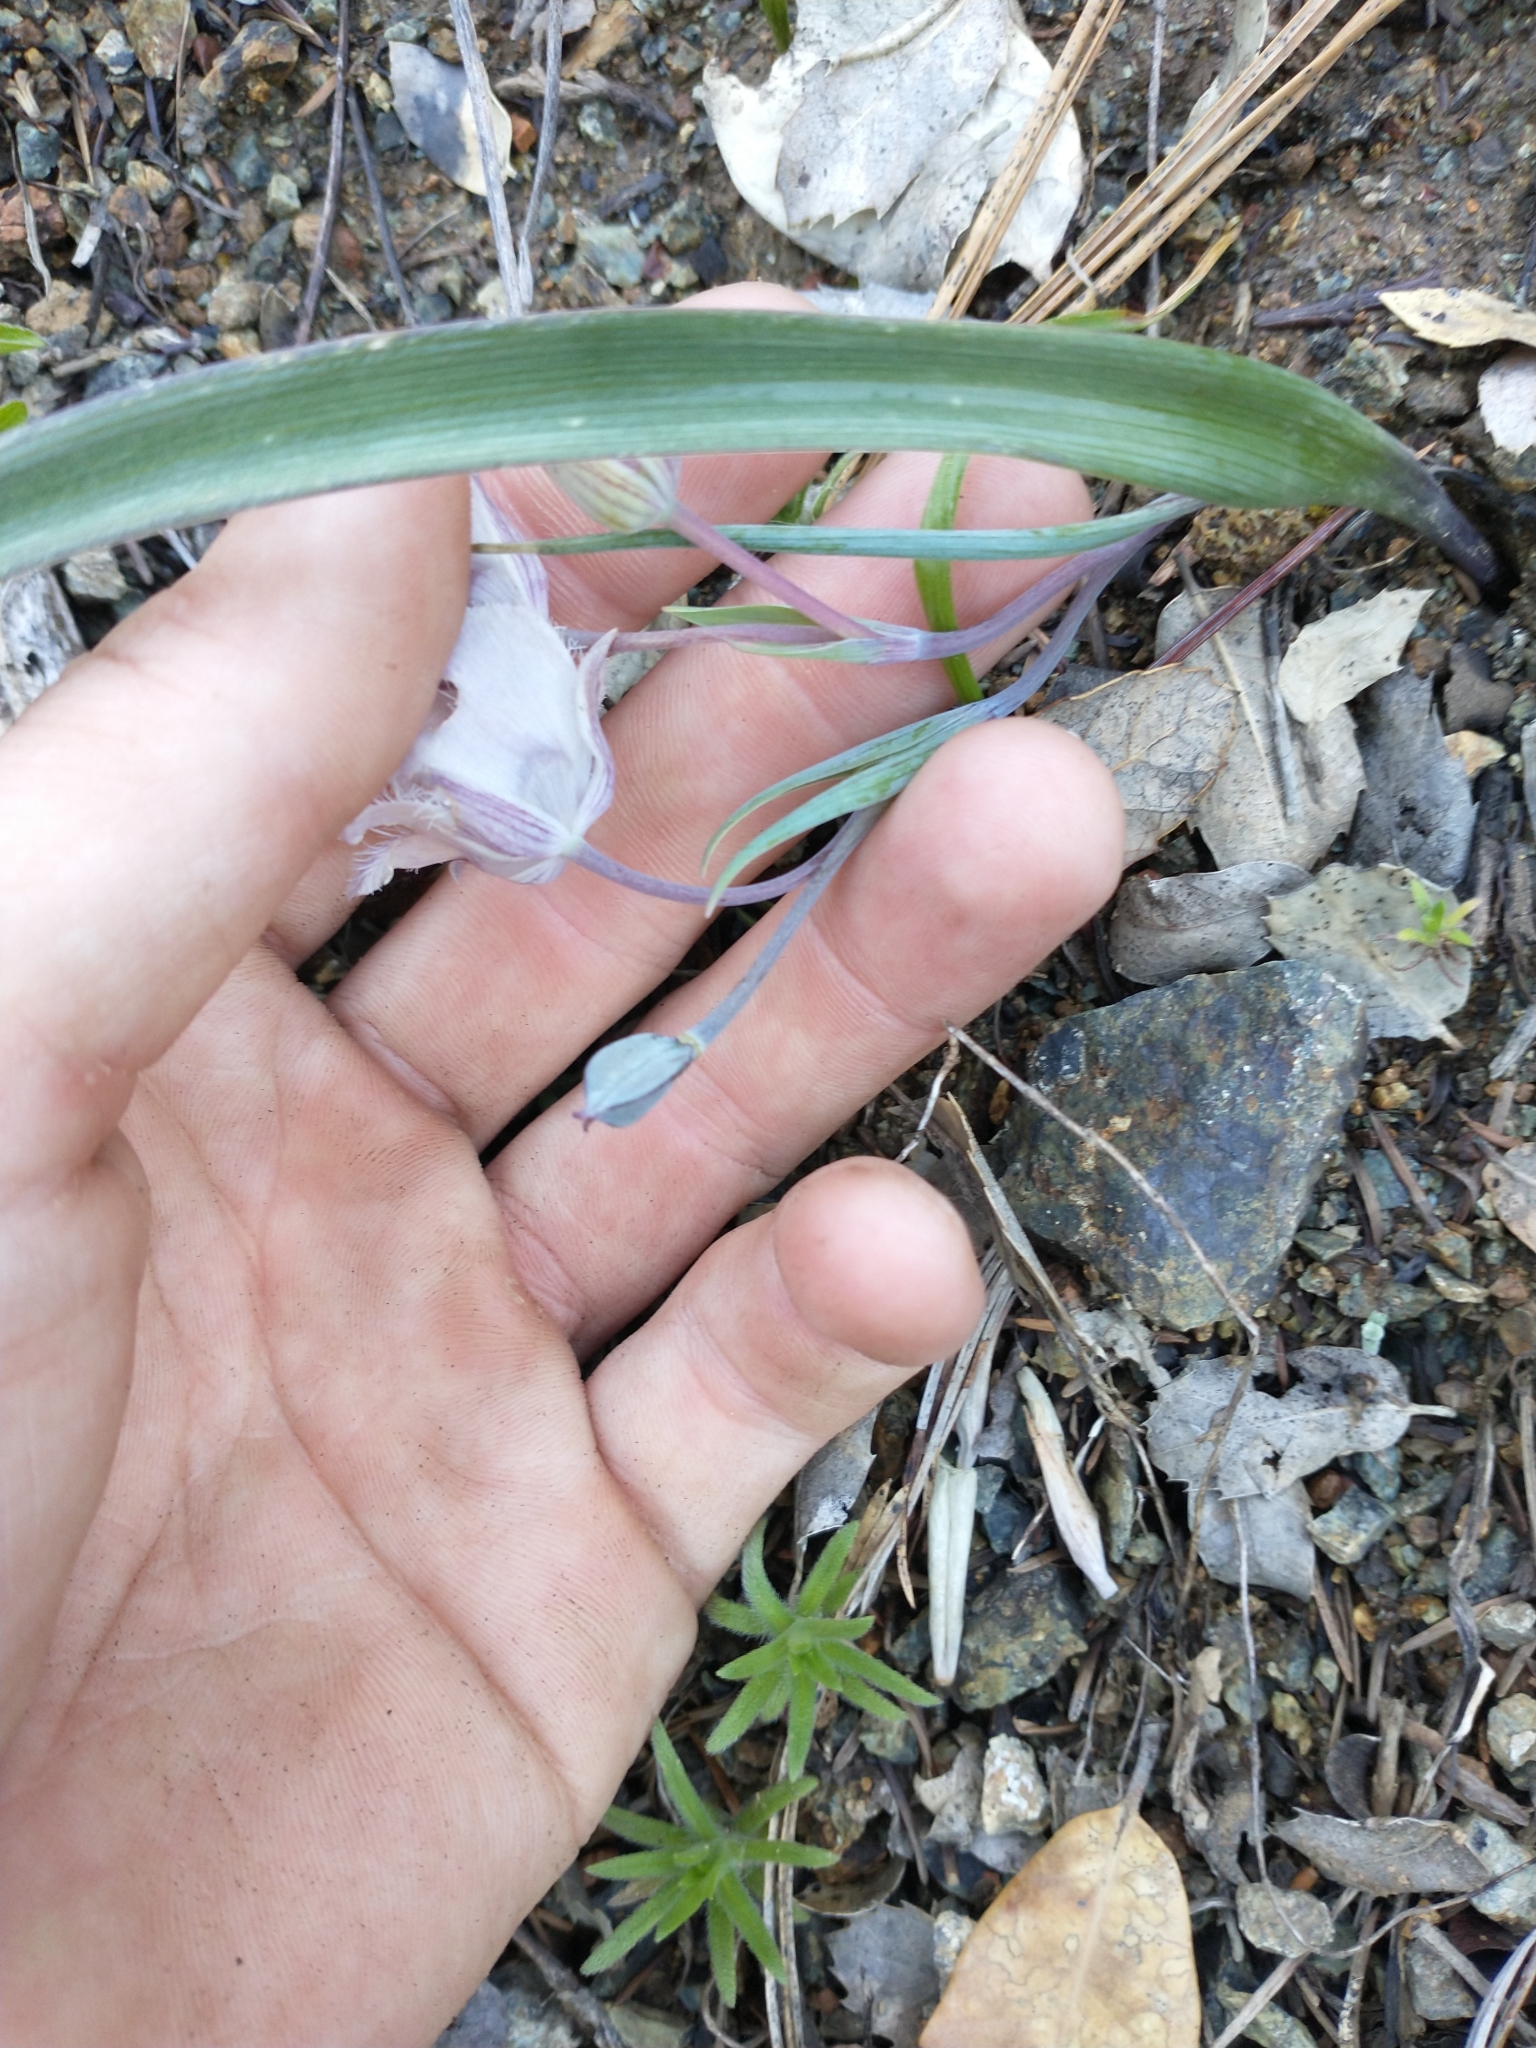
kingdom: Plantae
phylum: Tracheophyta
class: Liliopsida
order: Liliales
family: Liliaceae
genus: Calochortus
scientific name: Calochortus tolmiei
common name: Pussy-ears
